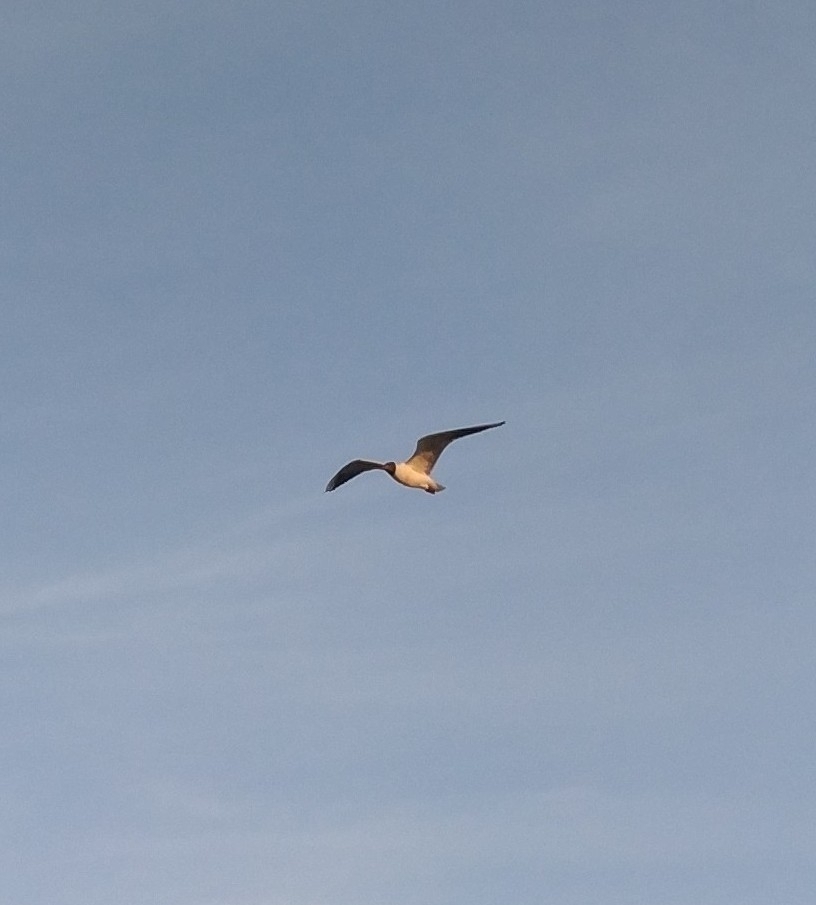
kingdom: Animalia
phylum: Chordata
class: Aves
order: Charadriiformes
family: Laridae
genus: Chroicocephalus
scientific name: Chroicocephalus ridibundus
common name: Black-headed gull
